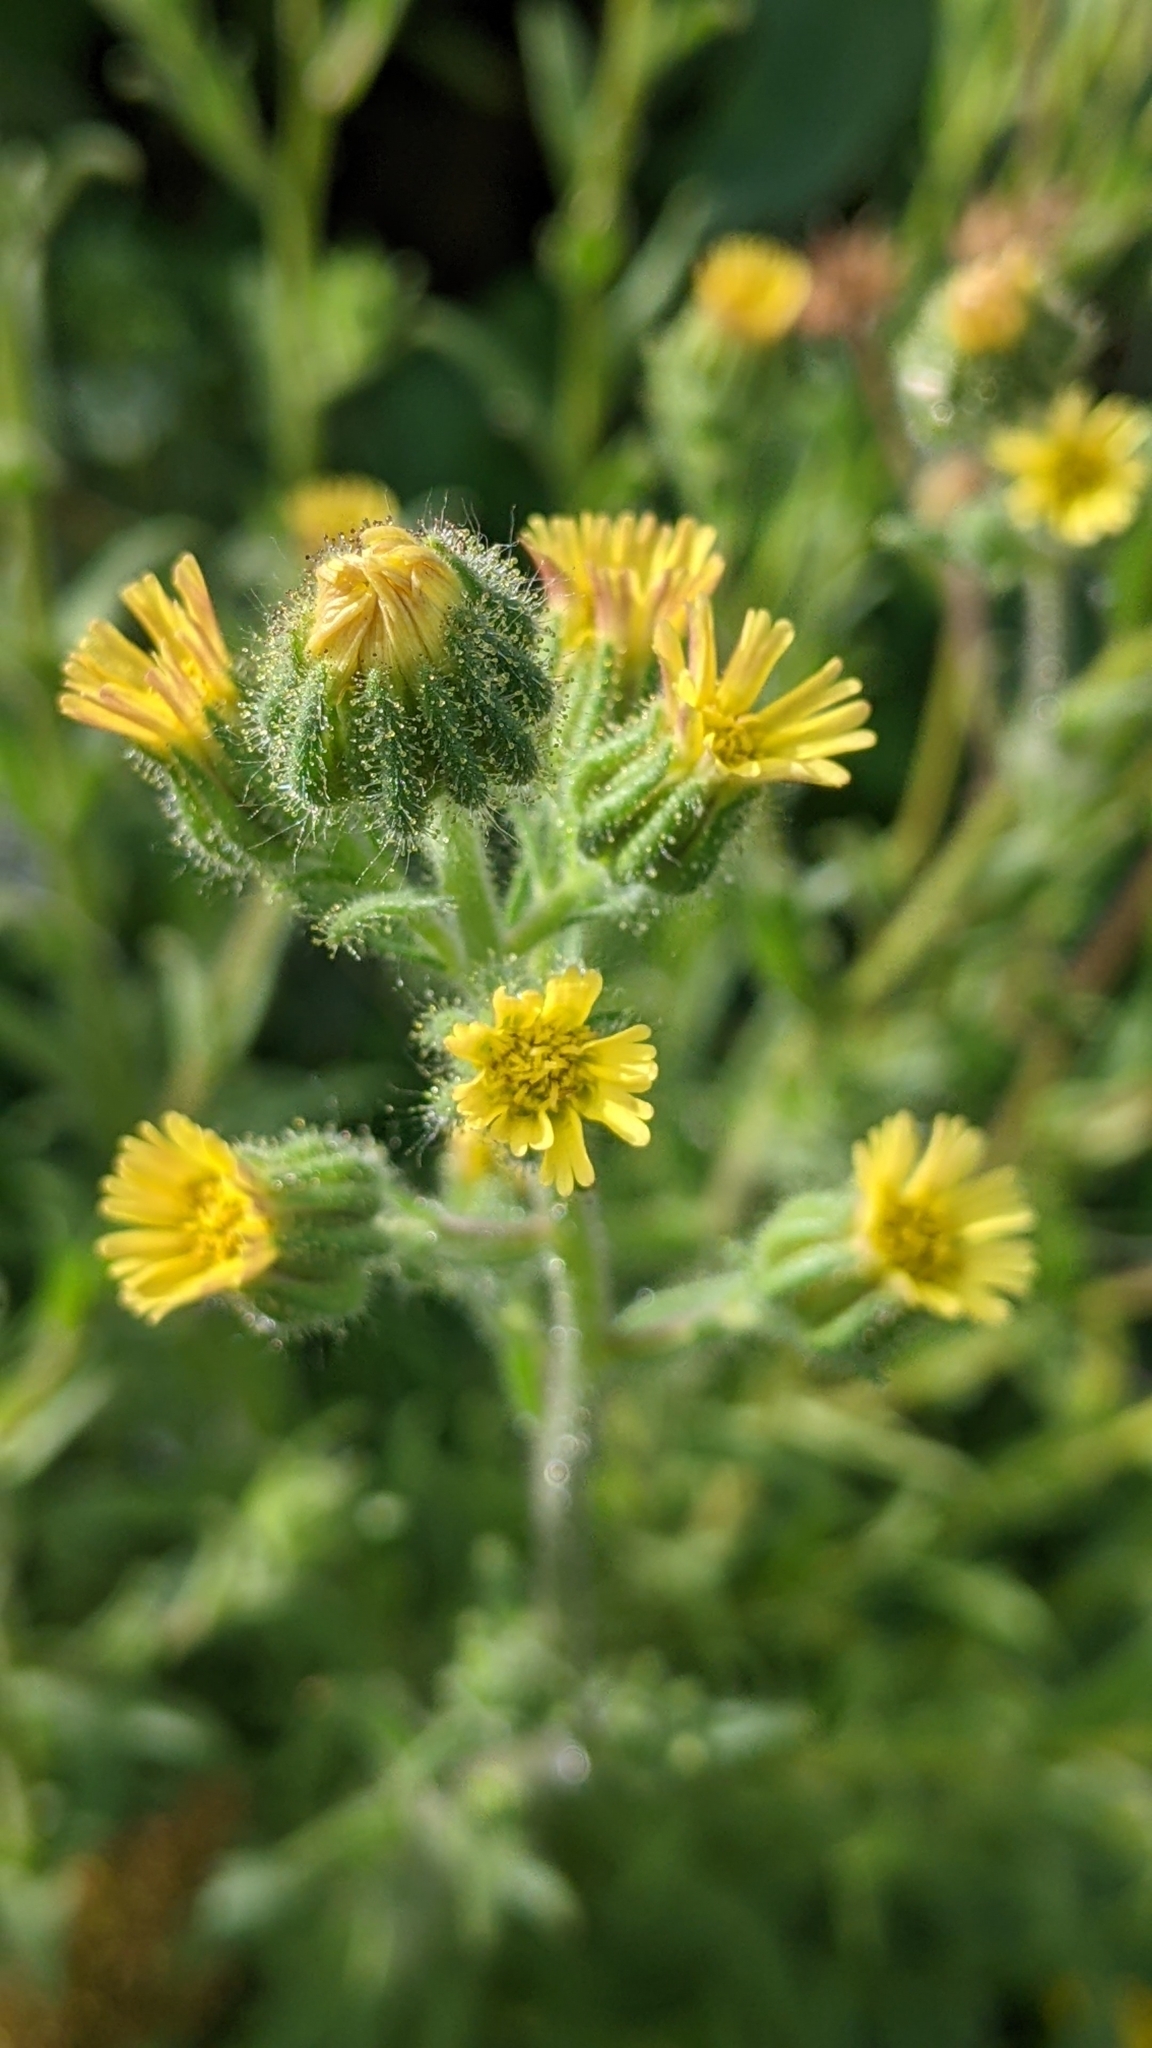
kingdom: Plantae
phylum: Tracheophyta
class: Magnoliopsida
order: Asterales
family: Asteraceae
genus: Madia
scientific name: Madia sativa
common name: Coast tarweed
